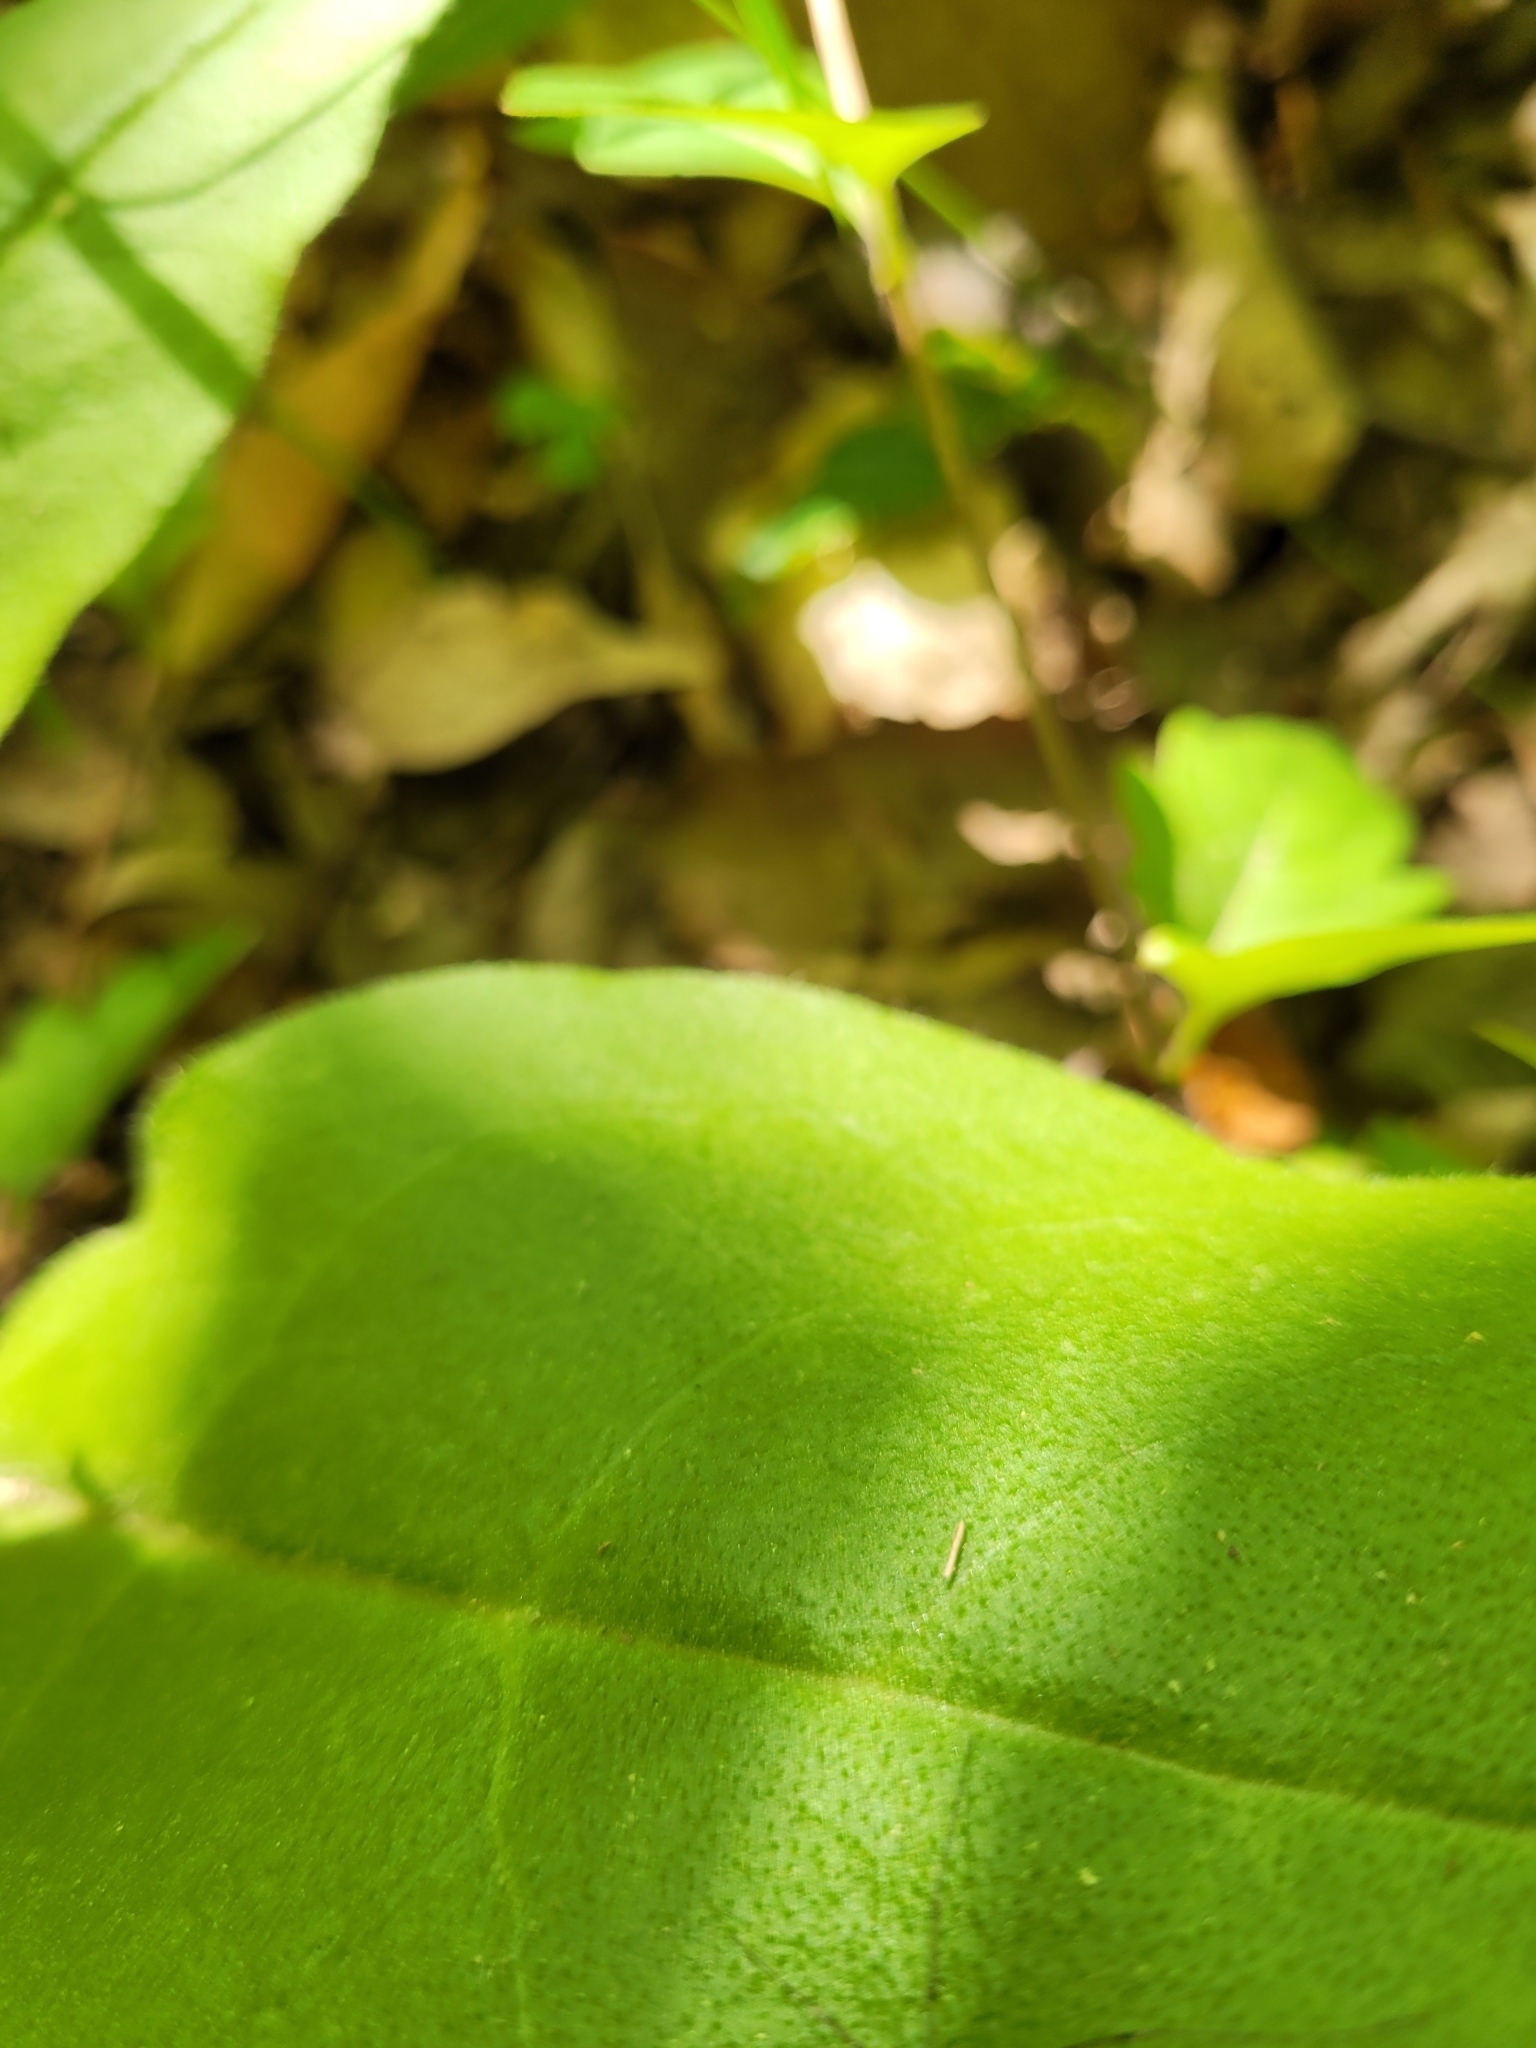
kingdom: Plantae
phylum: Tracheophyta
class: Magnoliopsida
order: Boraginales
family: Boraginaceae
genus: Andersonglossum
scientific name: Andersonglossum virginianum
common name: Wild comfrey
